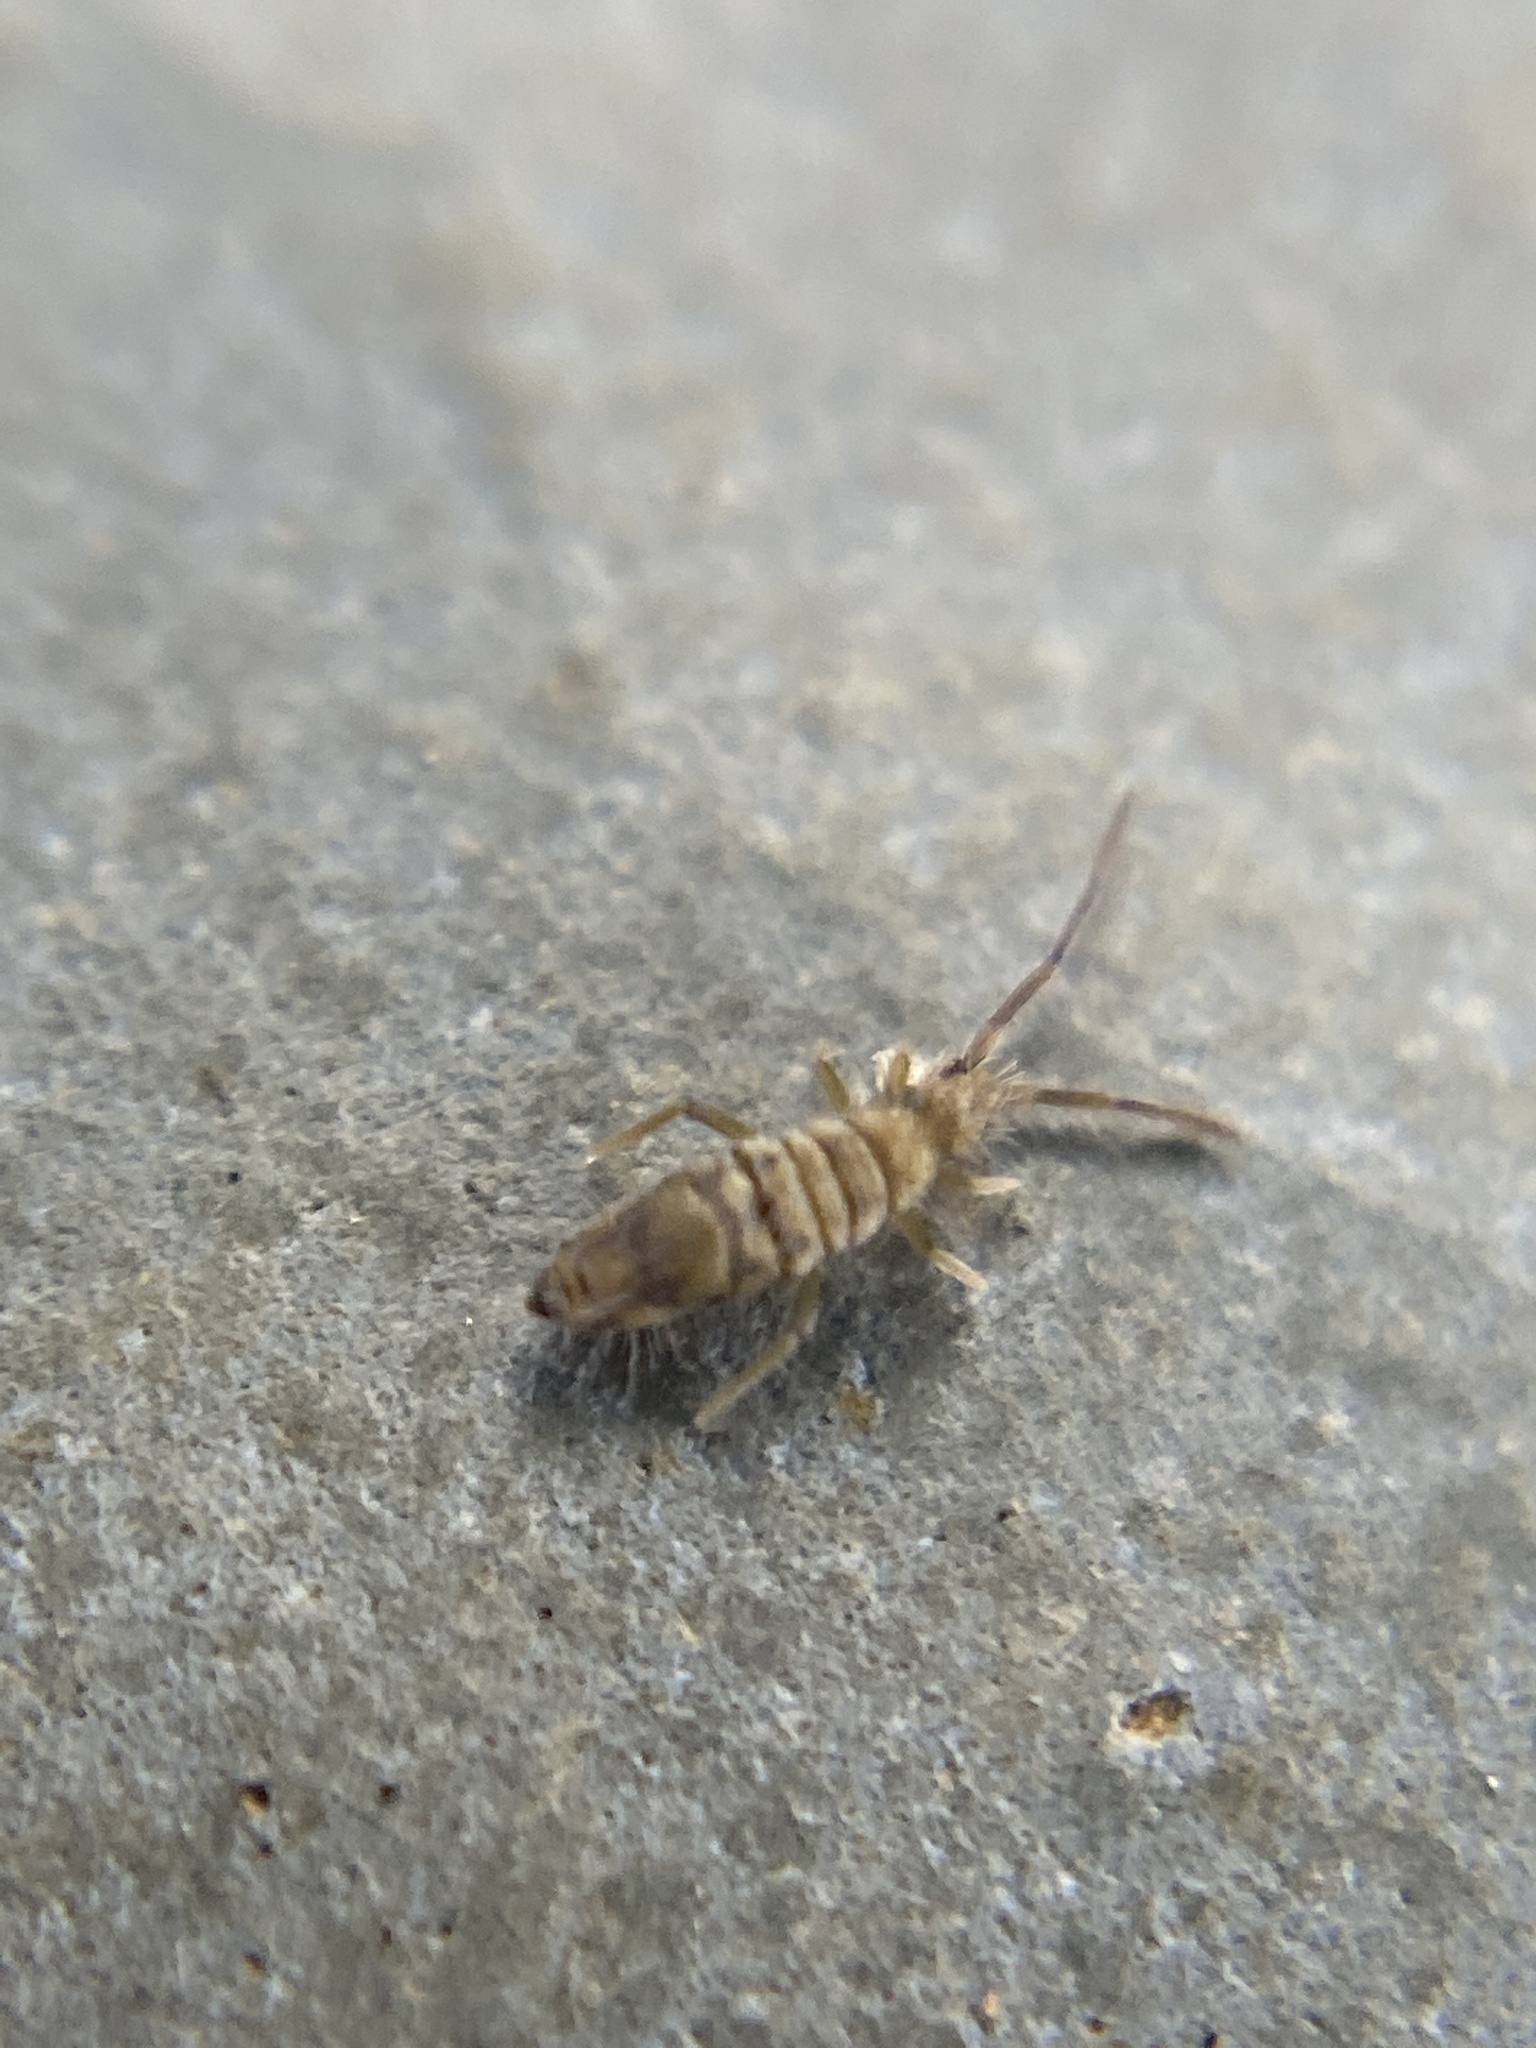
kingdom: Animalia
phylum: Arthropoda
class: Collembola
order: Entomobryomorpha
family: Entomobryidae
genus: Entomobrya
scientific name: Entomobrya nivalis
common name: Cosmopolitan springtail
